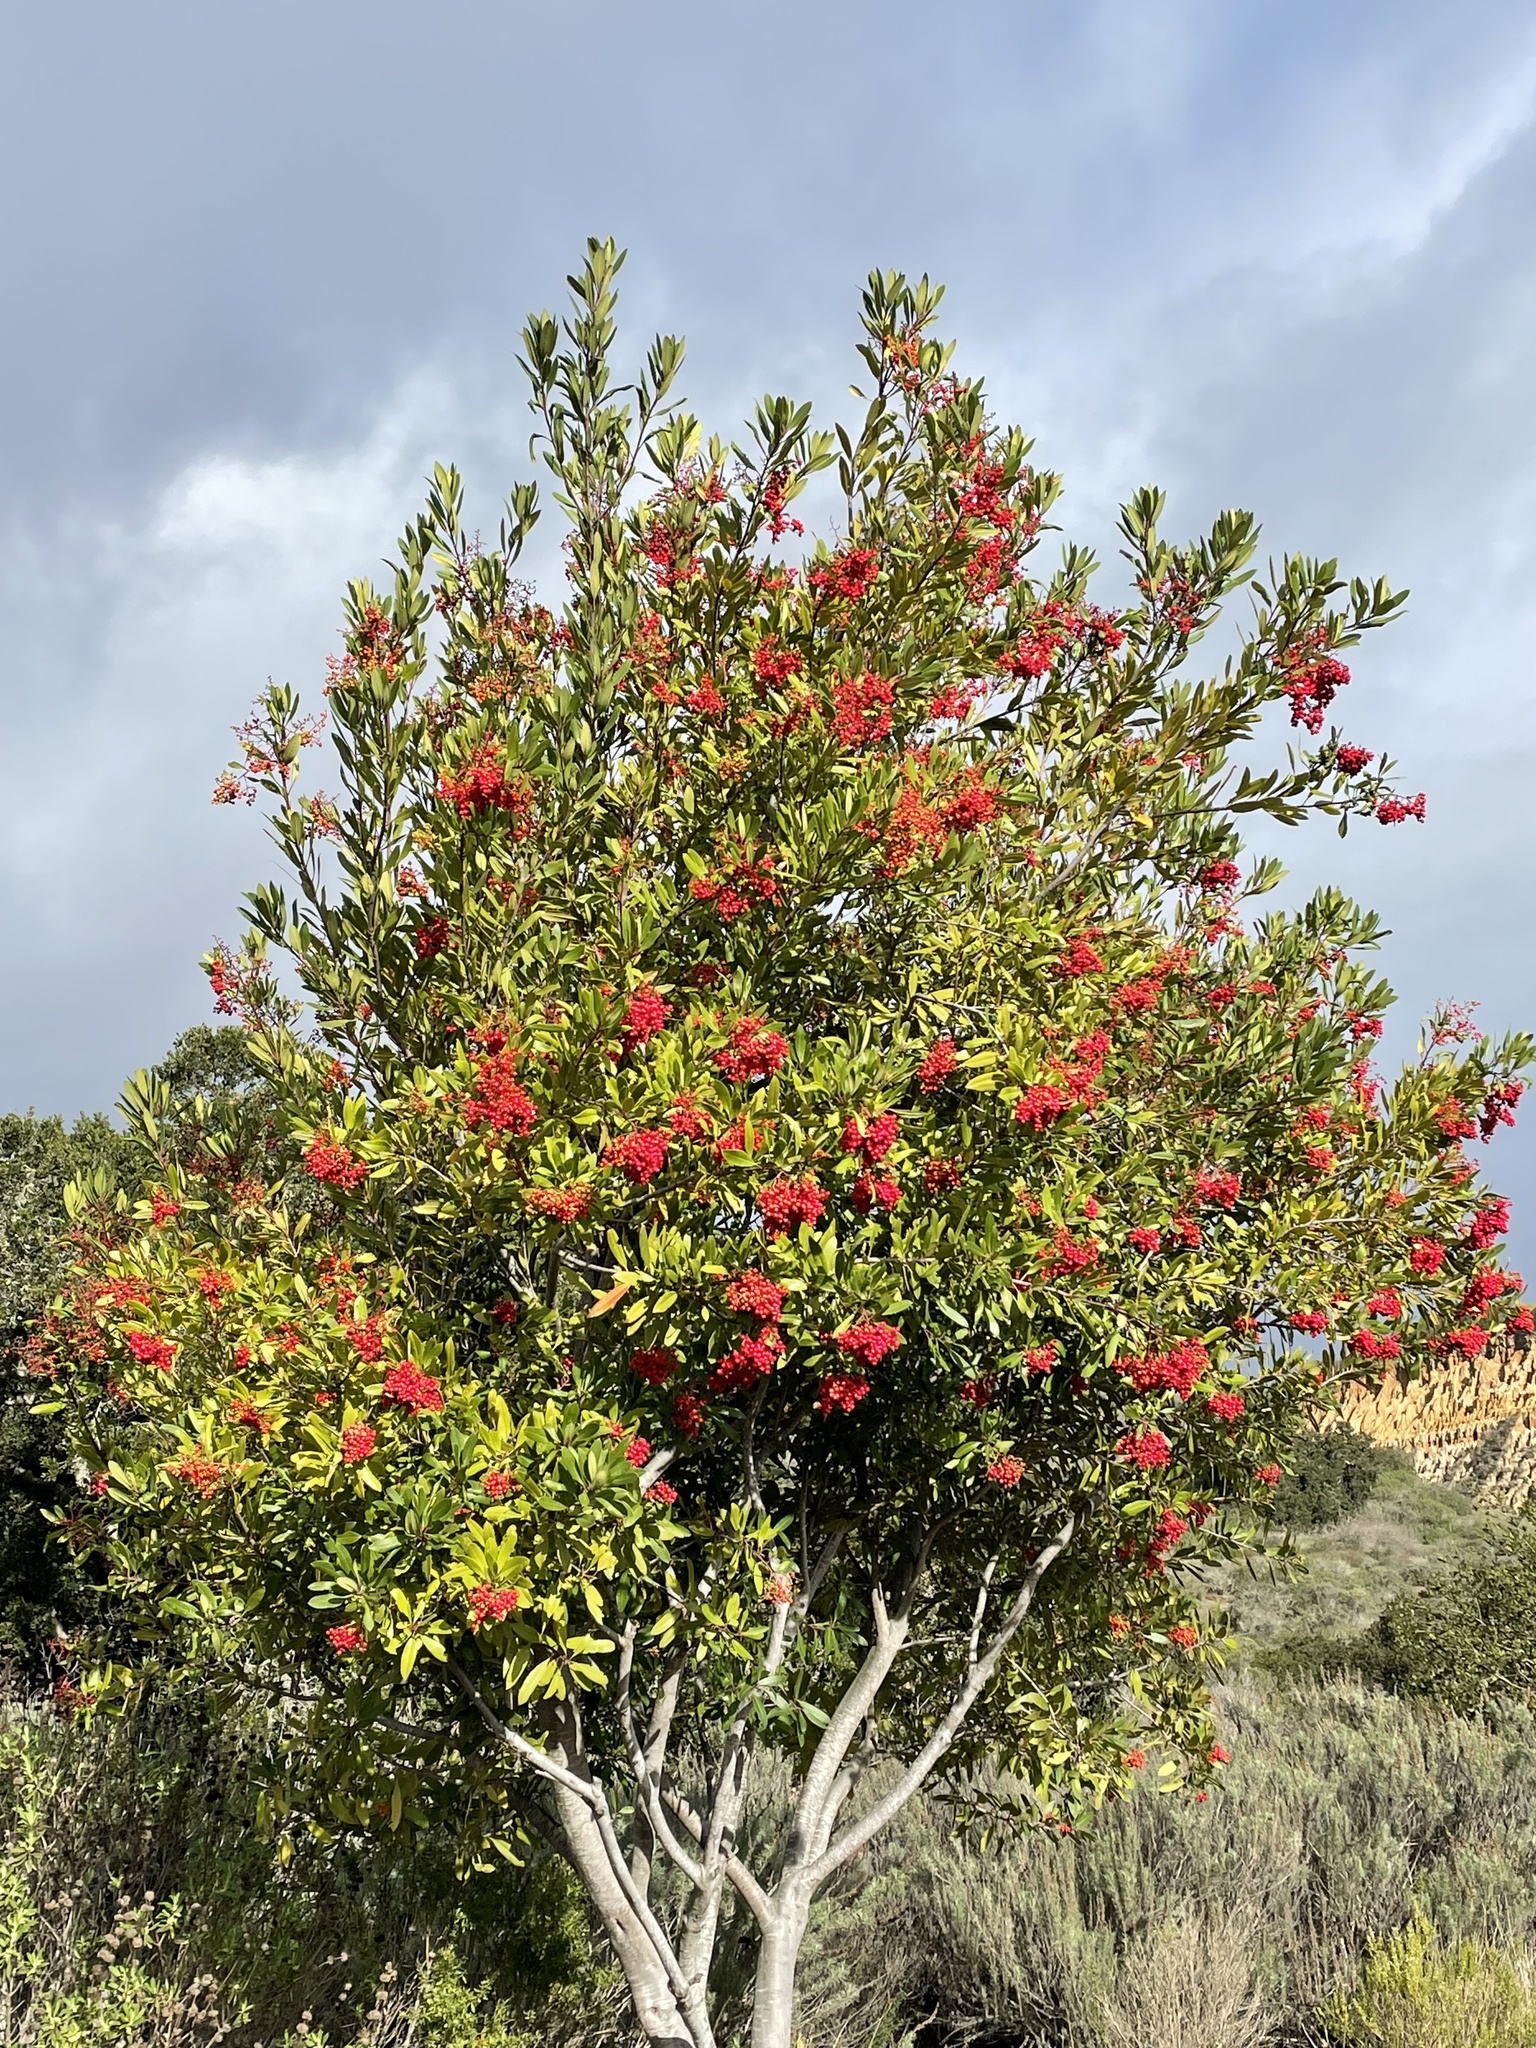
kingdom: Plantae
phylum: Tracheophyta
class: Magnoliopsida
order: Rosales
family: Rosaceae
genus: Heteromeles
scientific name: Heteromeles arbutifolia
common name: California-holly
